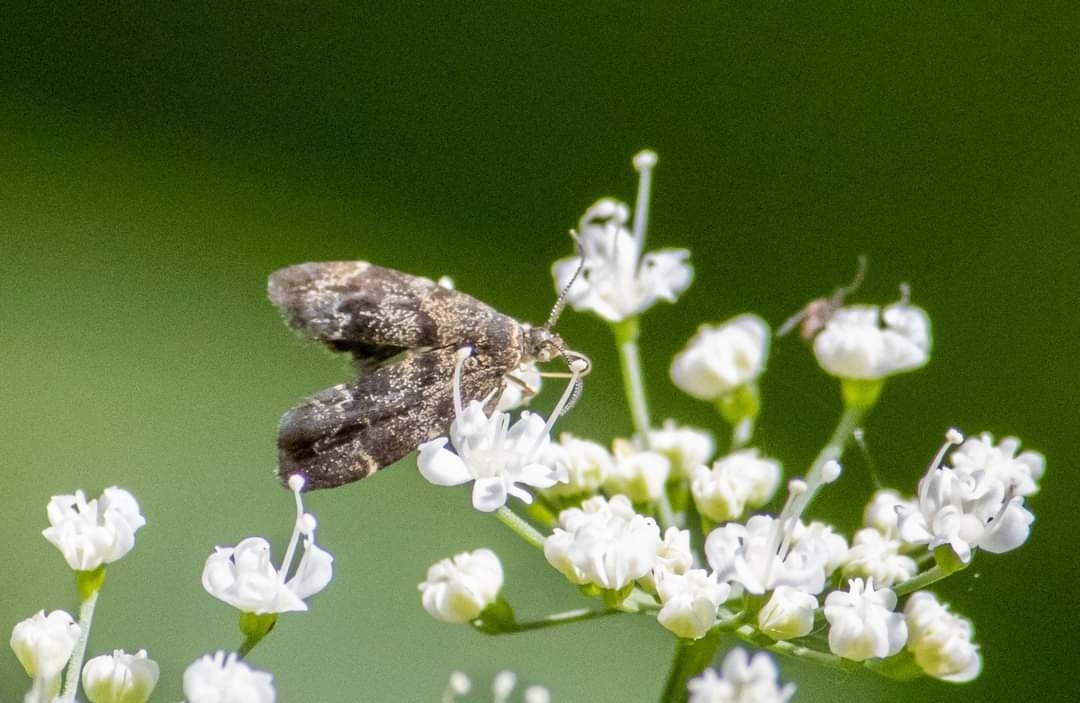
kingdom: Animalia
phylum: Arthropoda
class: Insecta
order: Lepidoptera
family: Choreutidae
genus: Anthophila
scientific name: Anthophila fabriciana
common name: Nettle-tap
